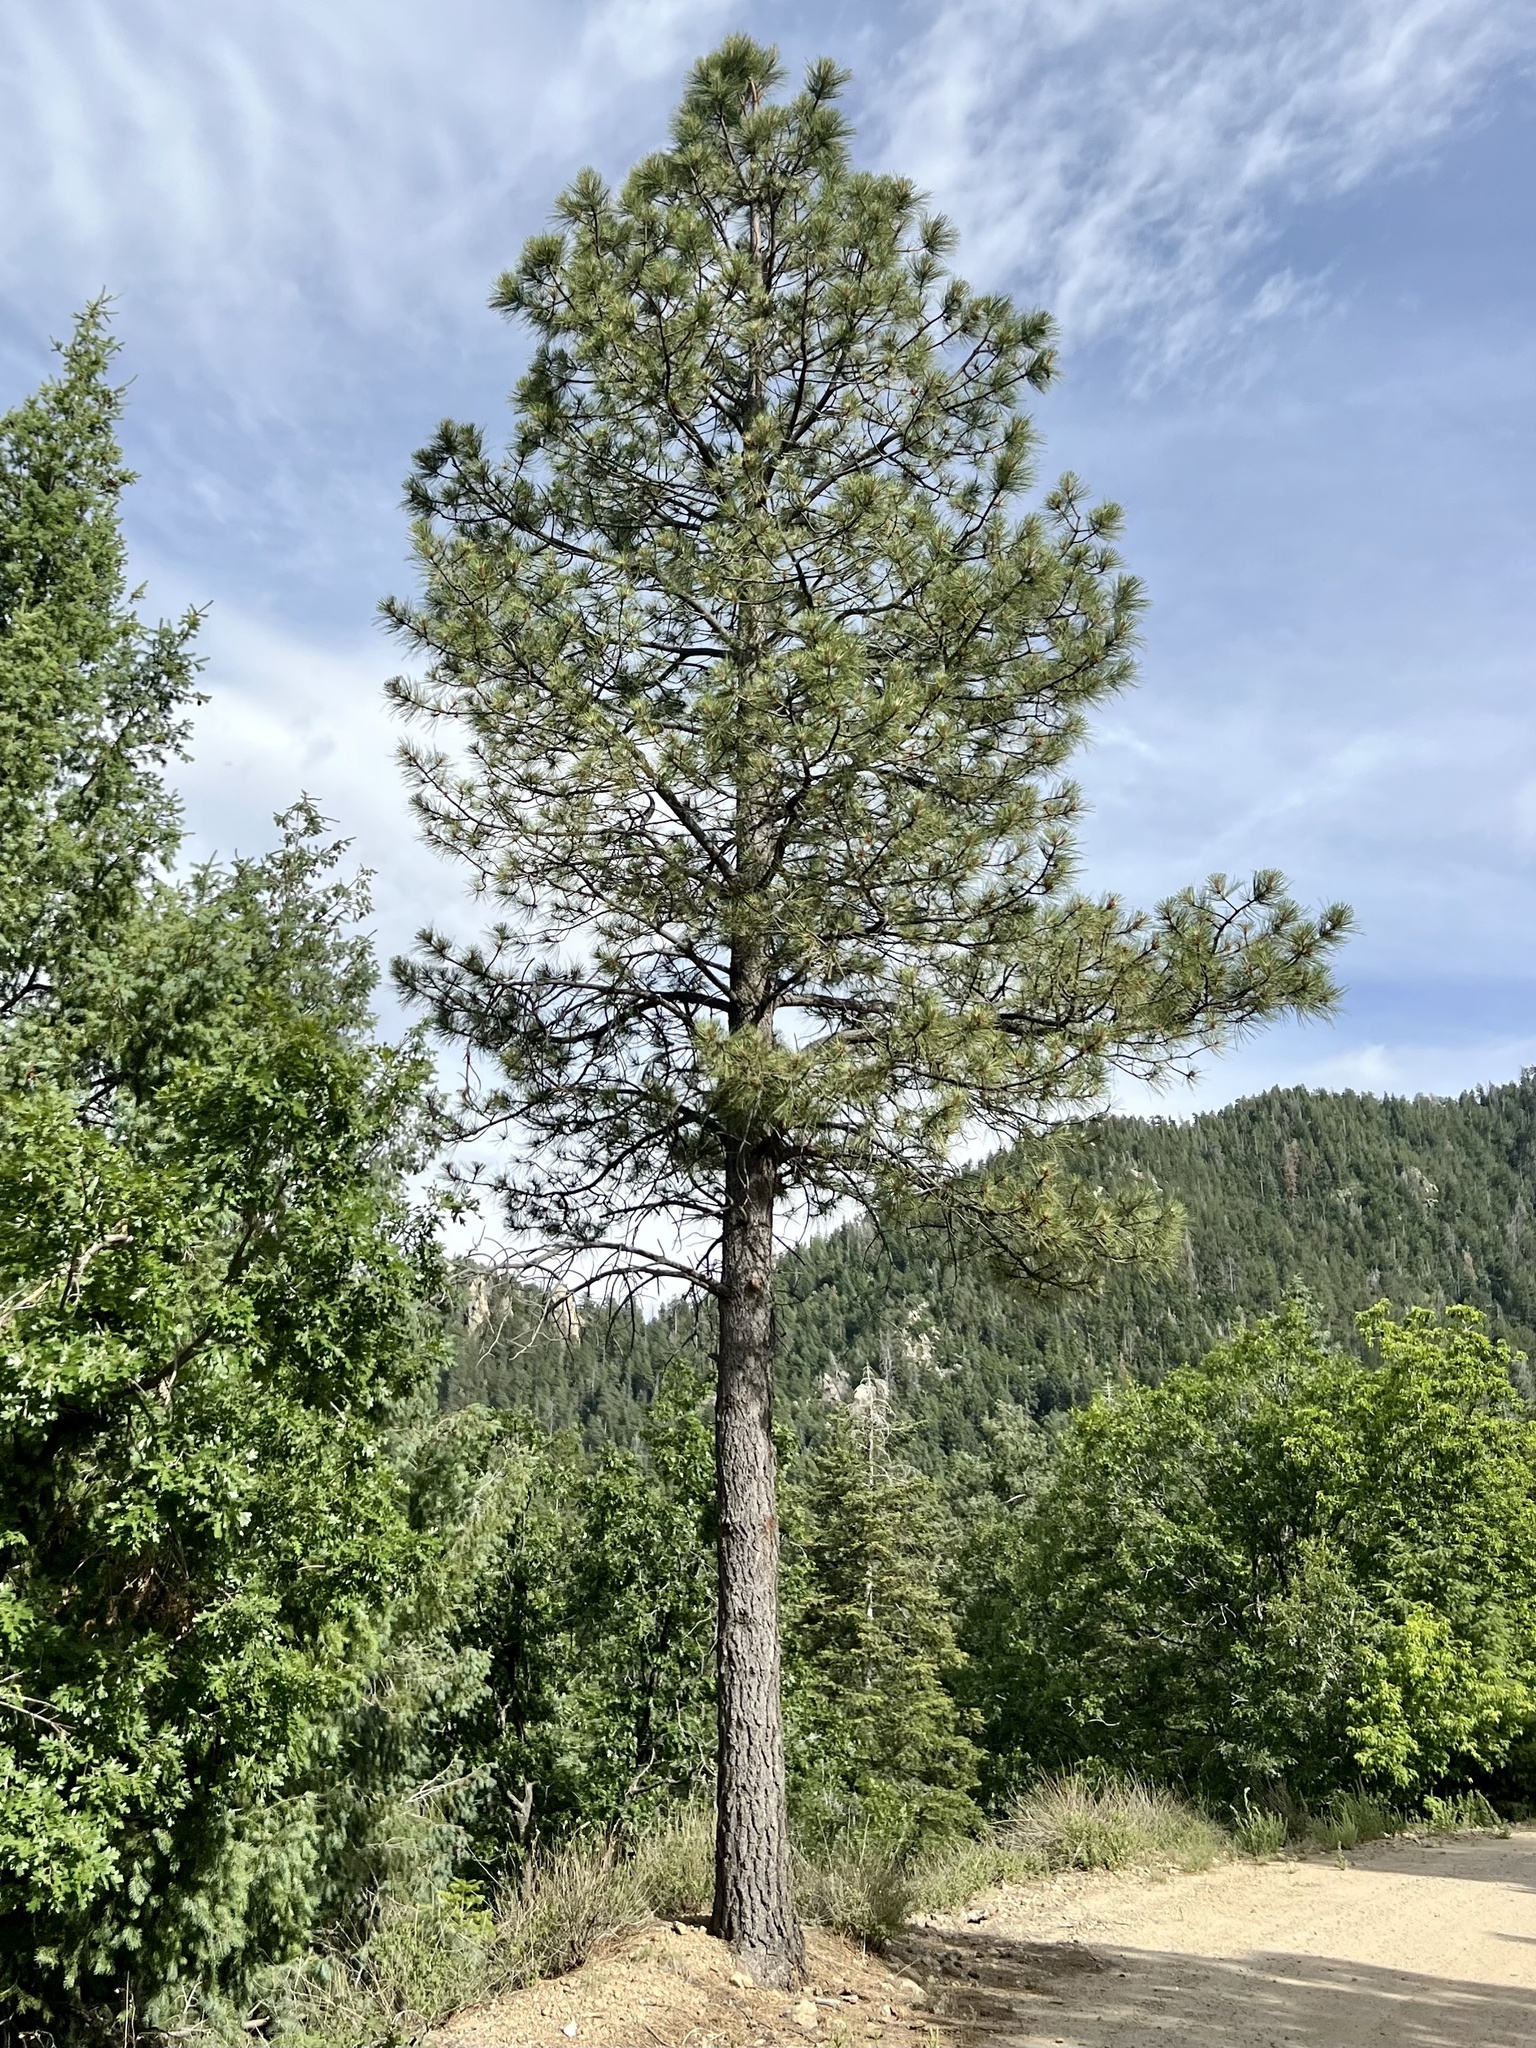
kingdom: Plantae
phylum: Tracheophyta
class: Pinopsida
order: Pinales
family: Pinaceae
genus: Pinus
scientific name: Pinus ponderosa
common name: Western yellow-pine
